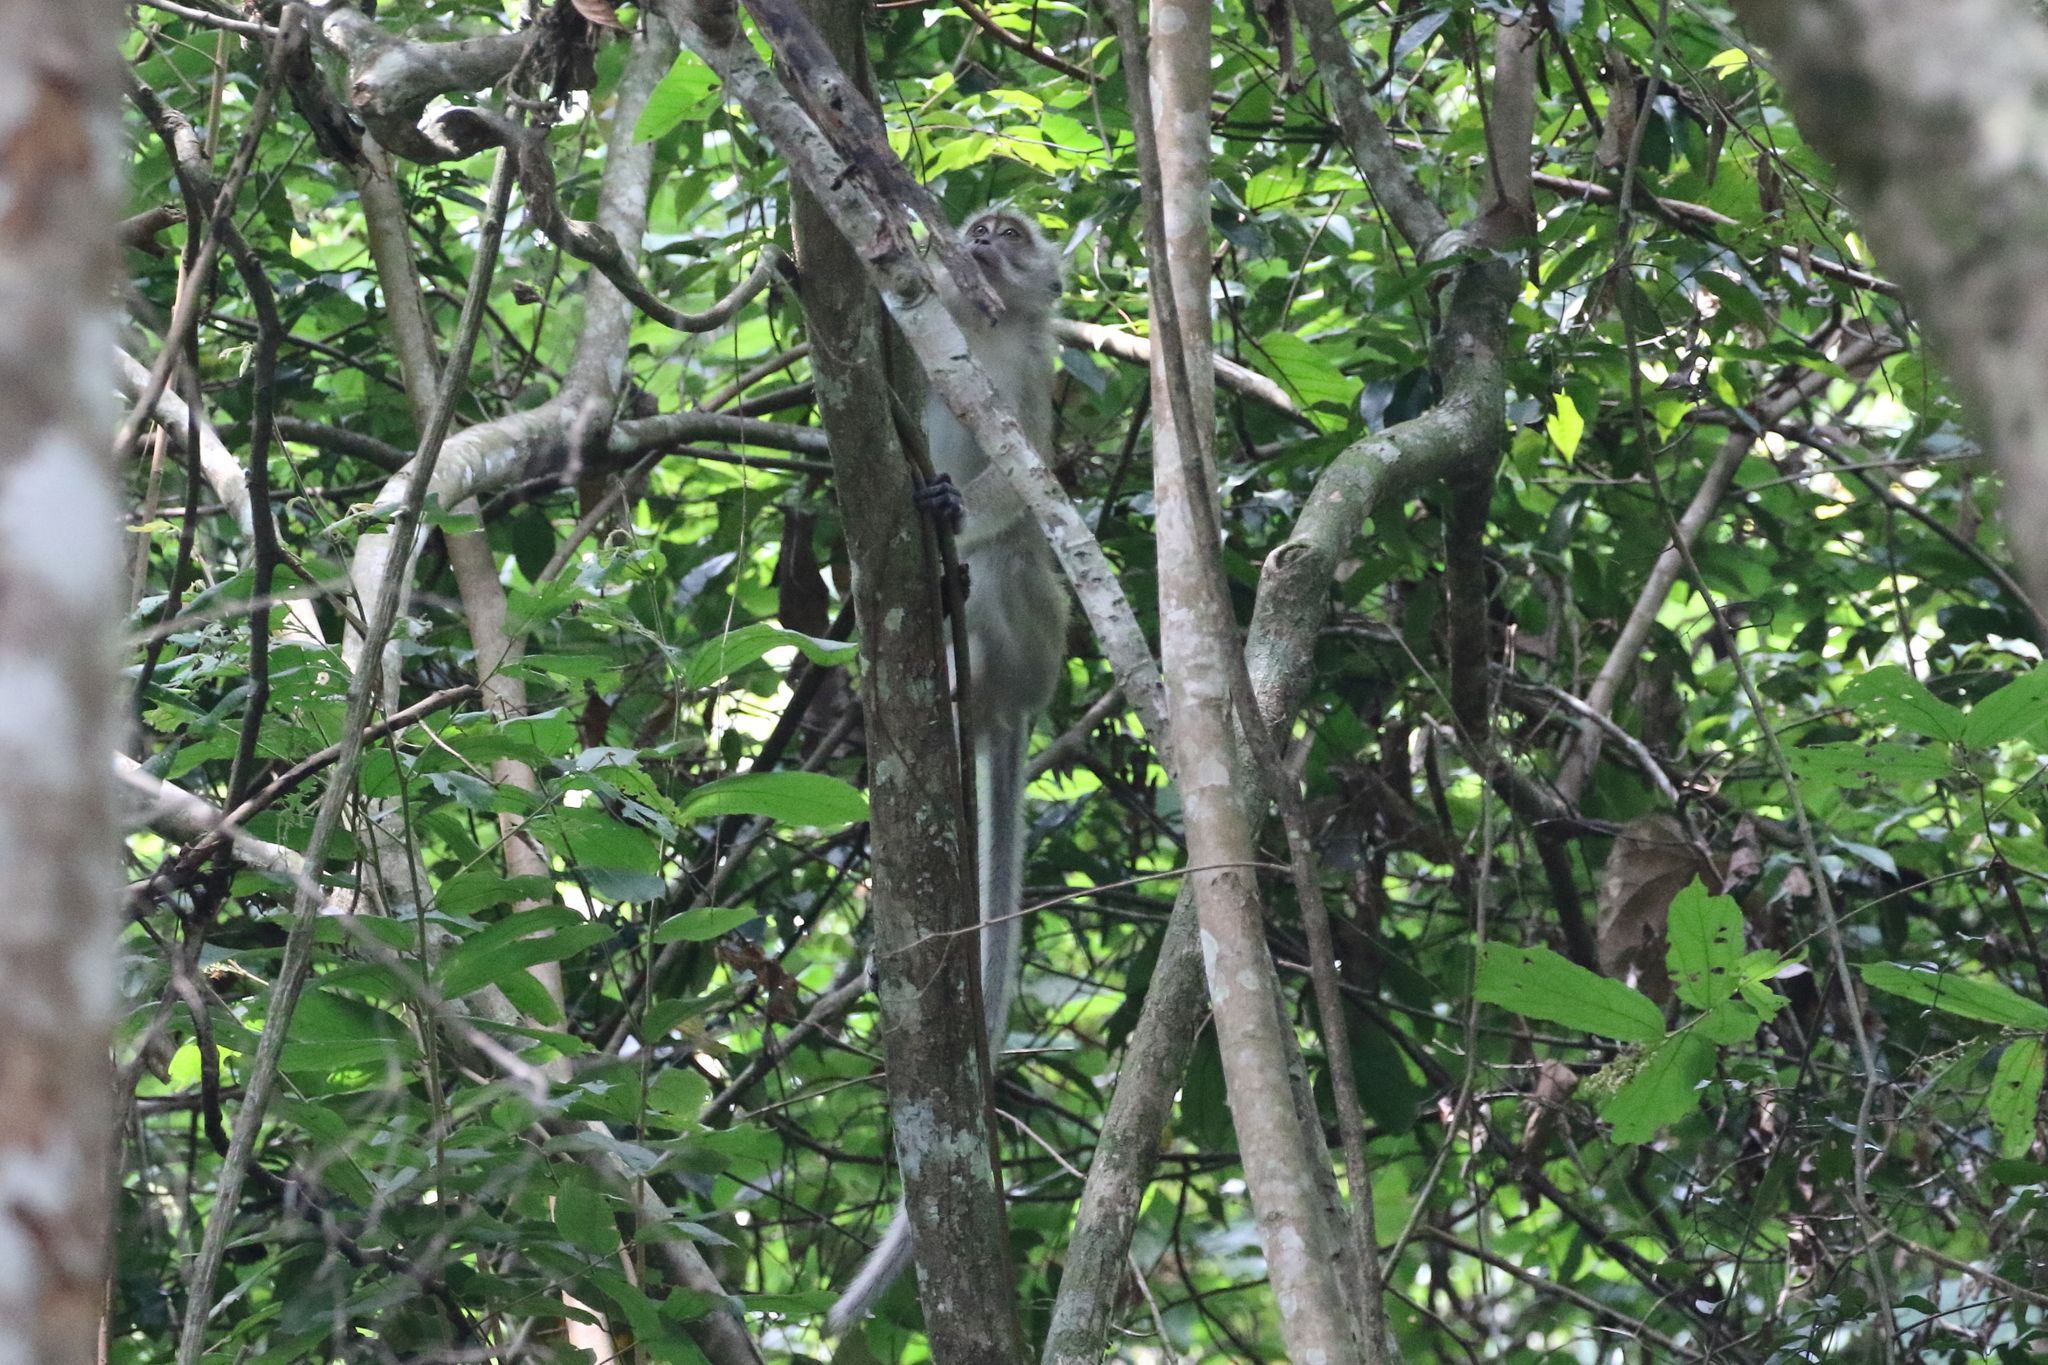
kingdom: Animalia
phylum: Chordata
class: Mammalia
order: Primates
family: Cercopithecidae
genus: Macaca
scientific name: Macaca fascicularis
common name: Crab-eating macaque
